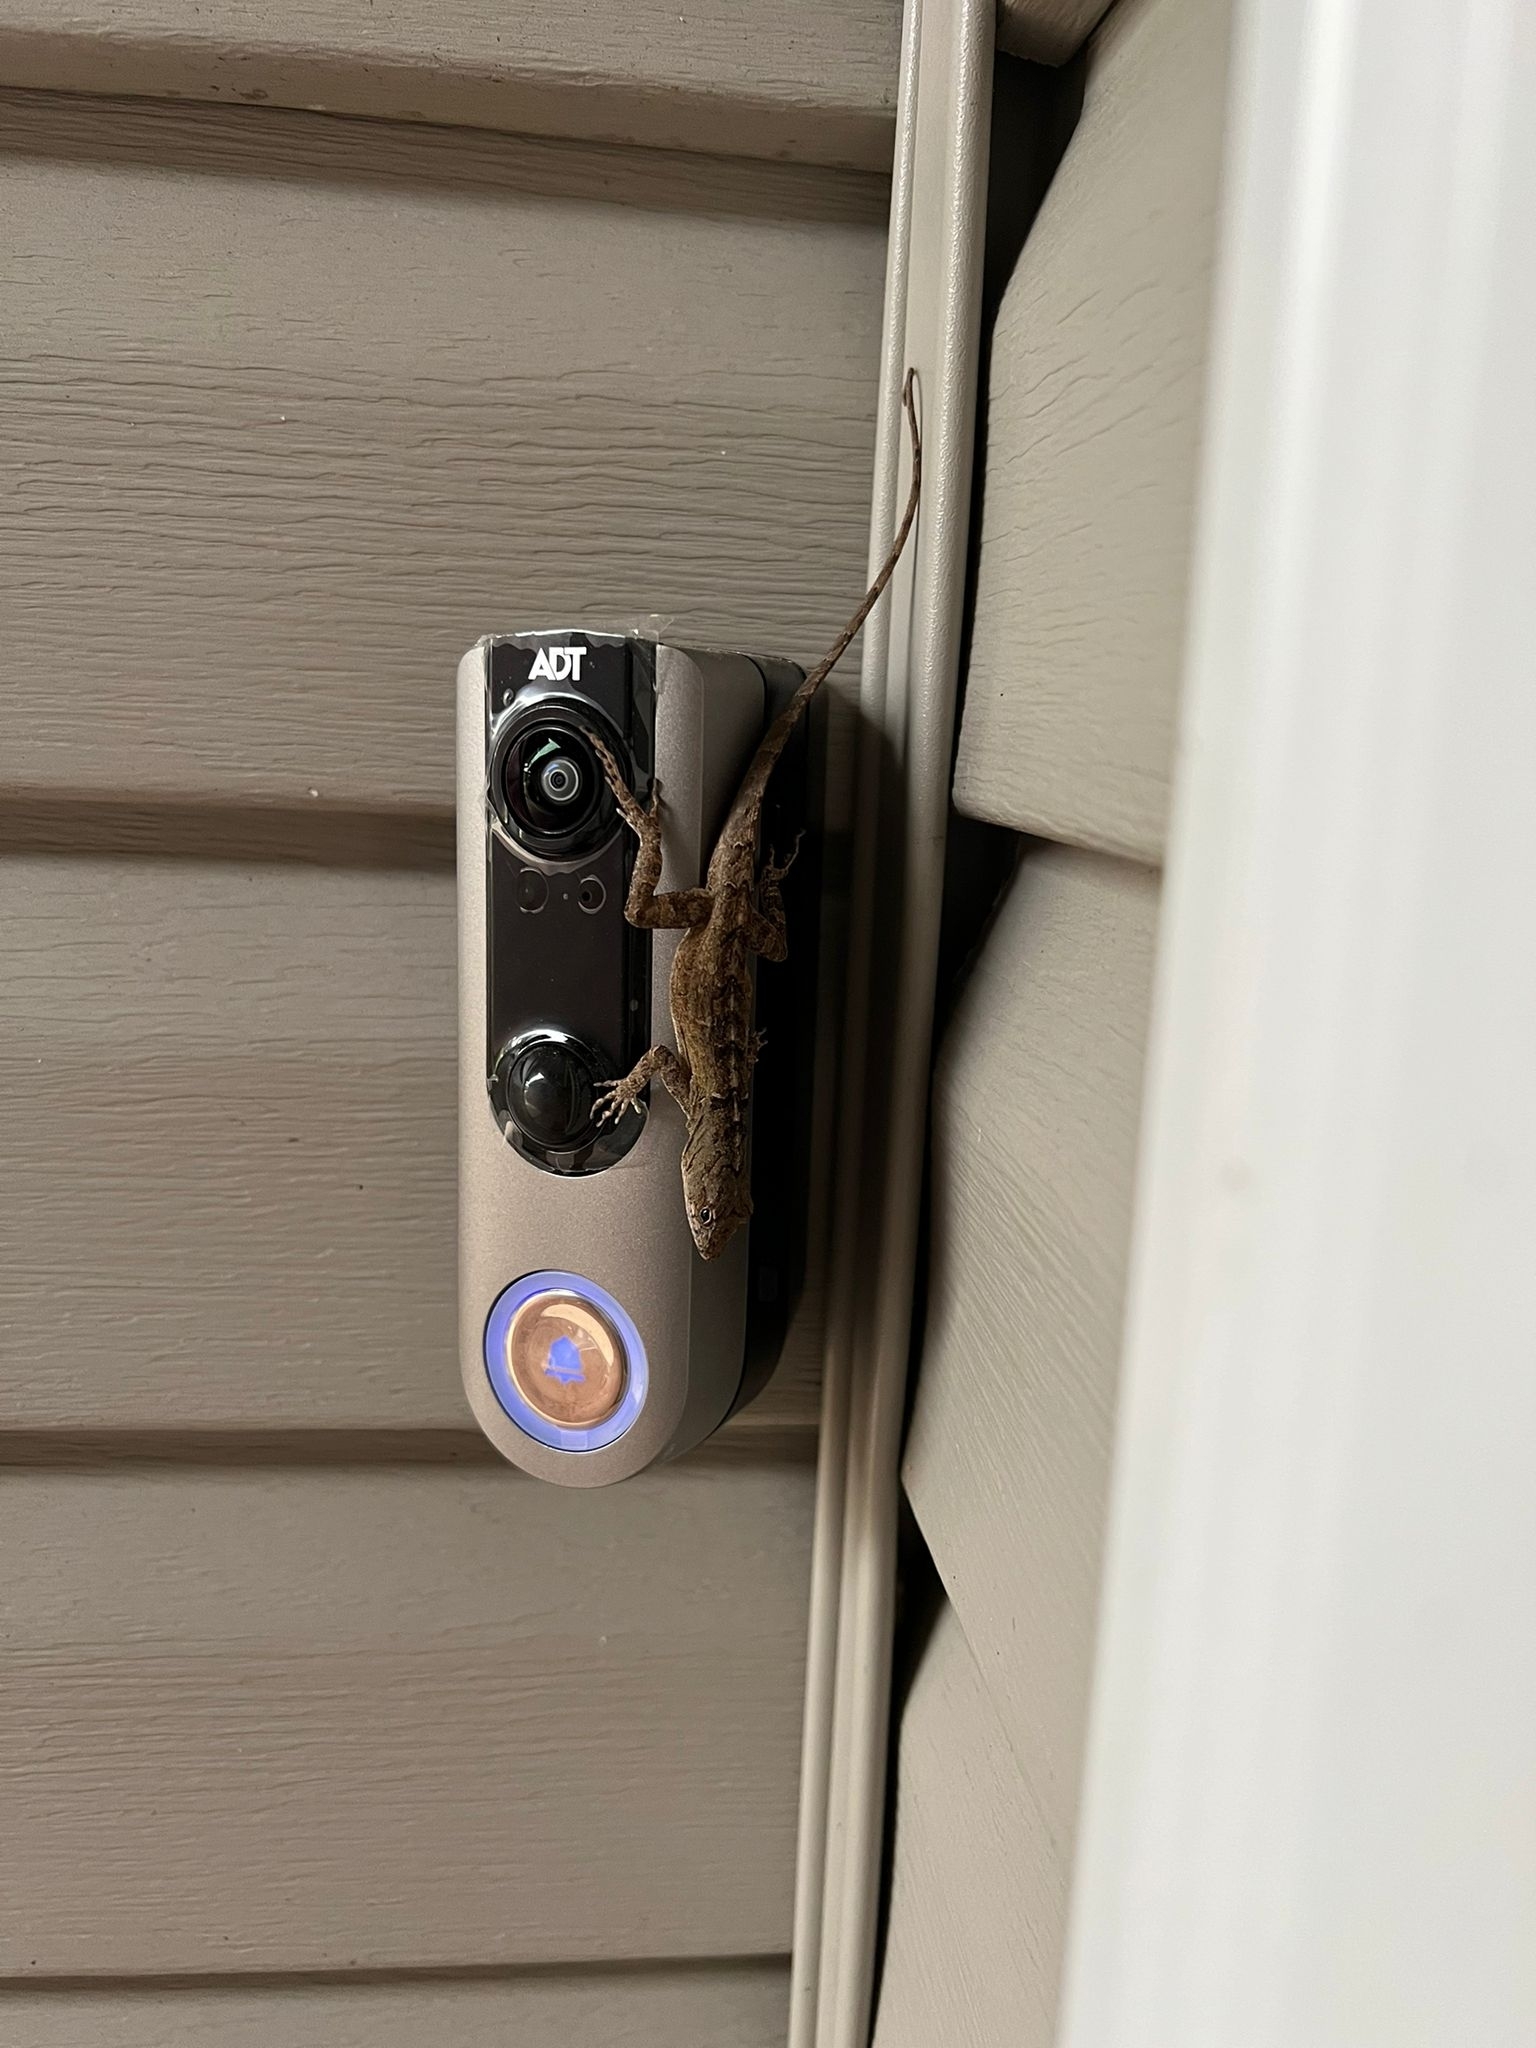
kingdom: Animalia
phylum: Chordata
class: Squamata
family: Dactyloidae
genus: Anolis
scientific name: Anolis sagrei
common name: Brown anole
